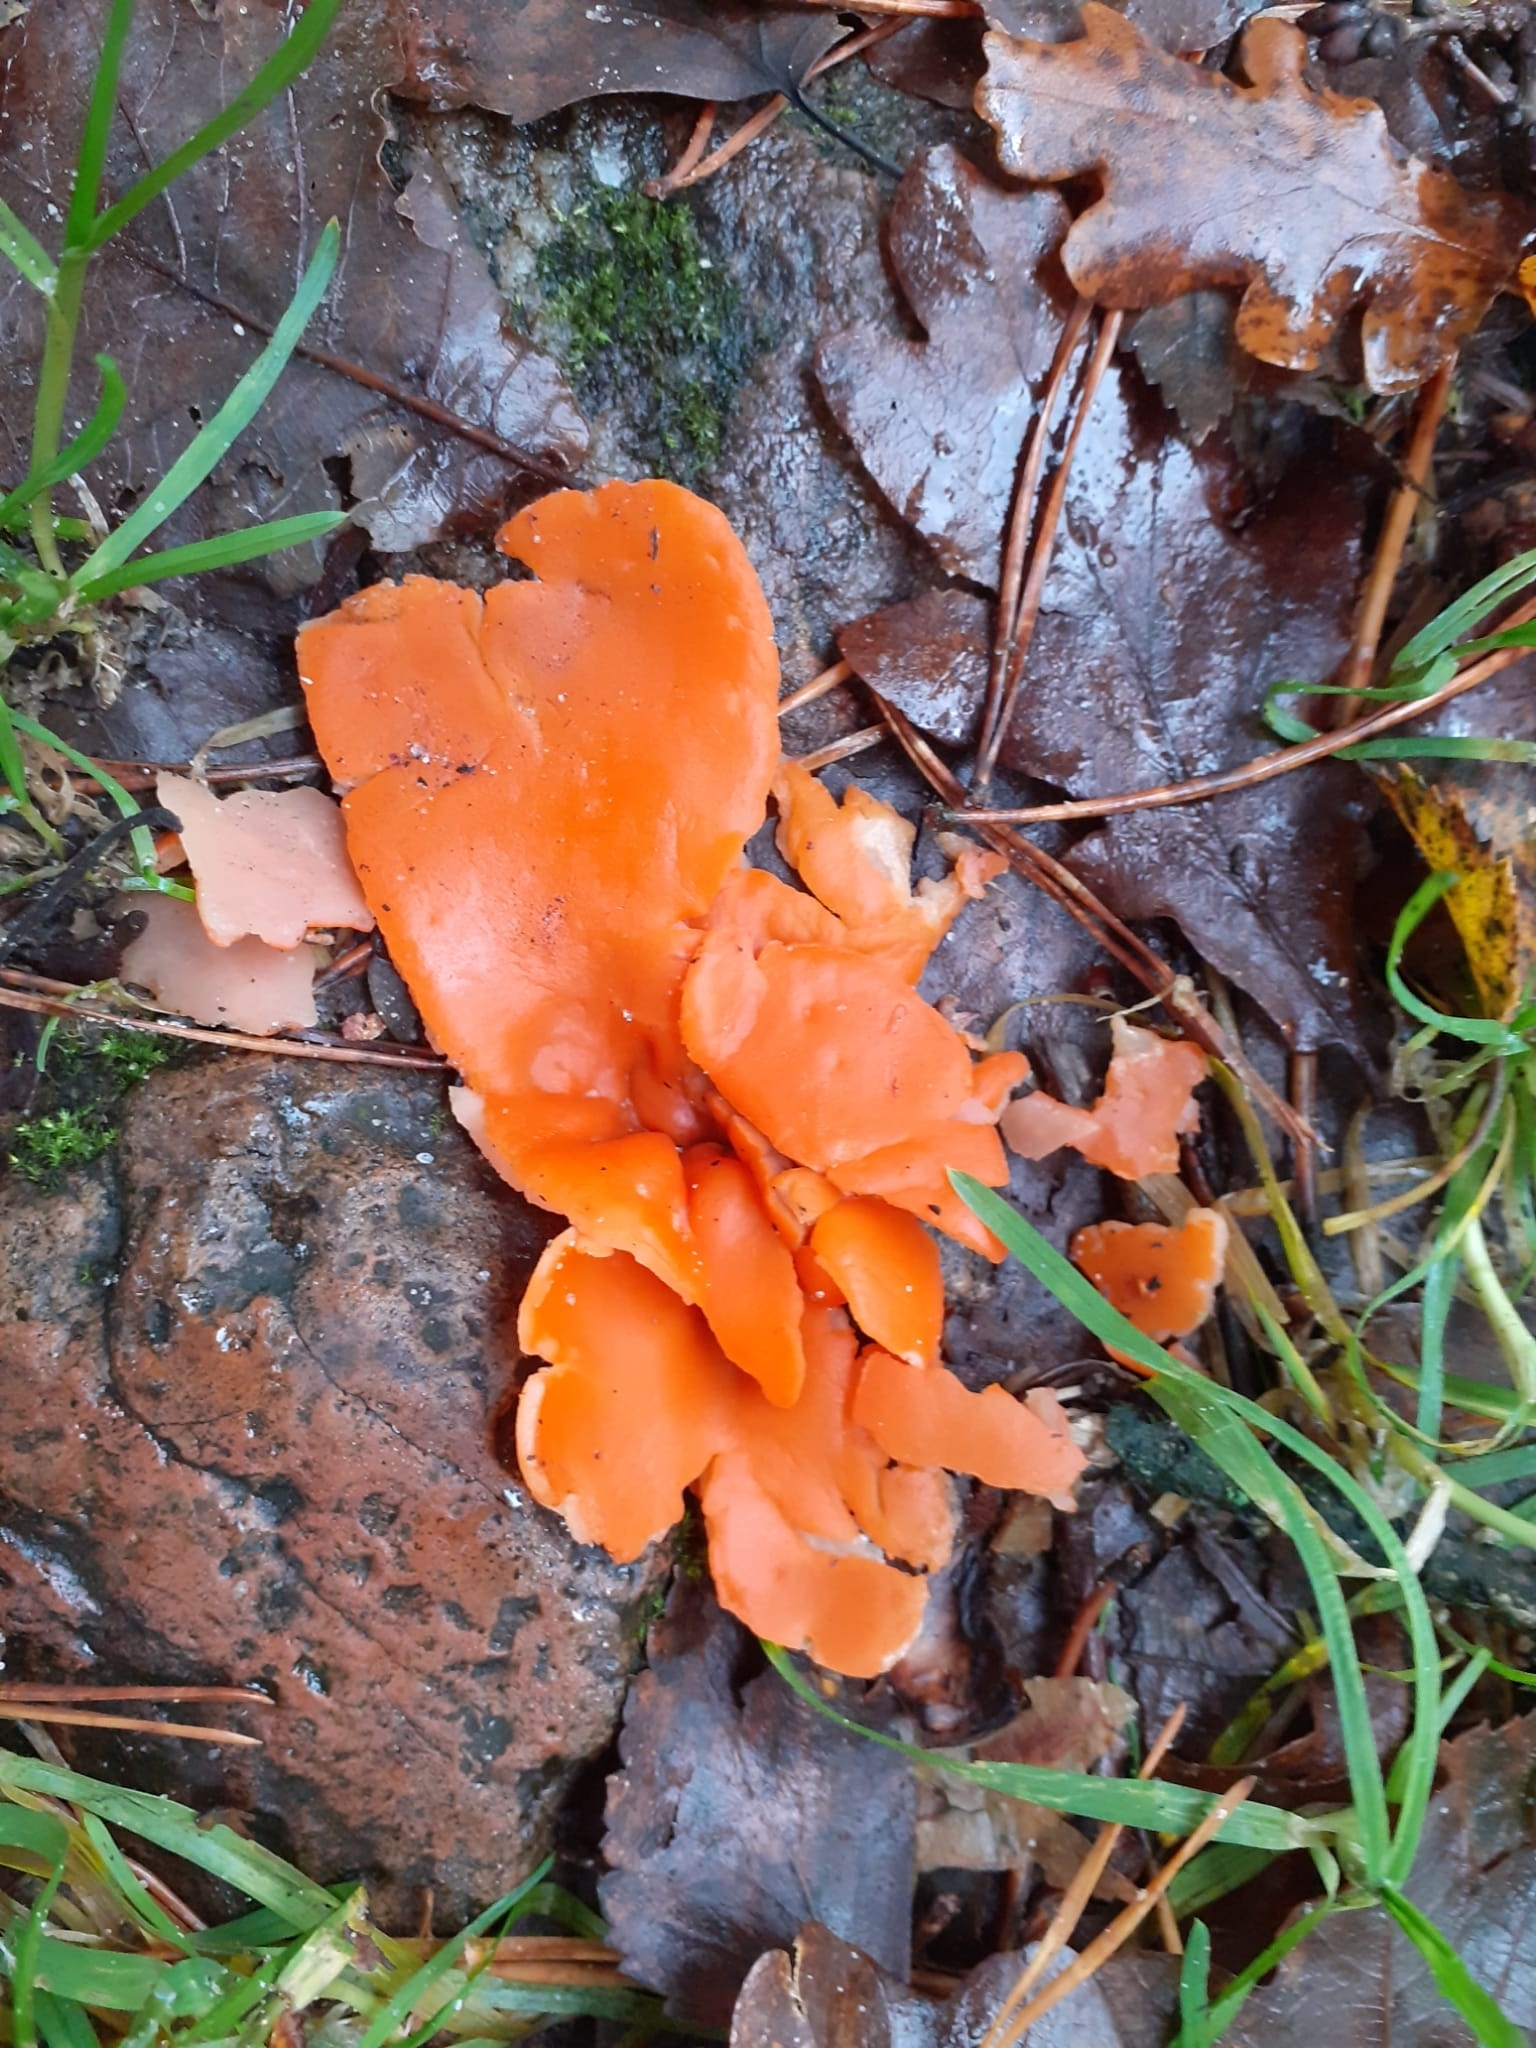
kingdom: Fungi
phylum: Ascomycota
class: Pezizomycetes
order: Pezizales
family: Pyronemataceae
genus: Aleuria
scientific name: Aleuria aurantia
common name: Orange peel fungus
